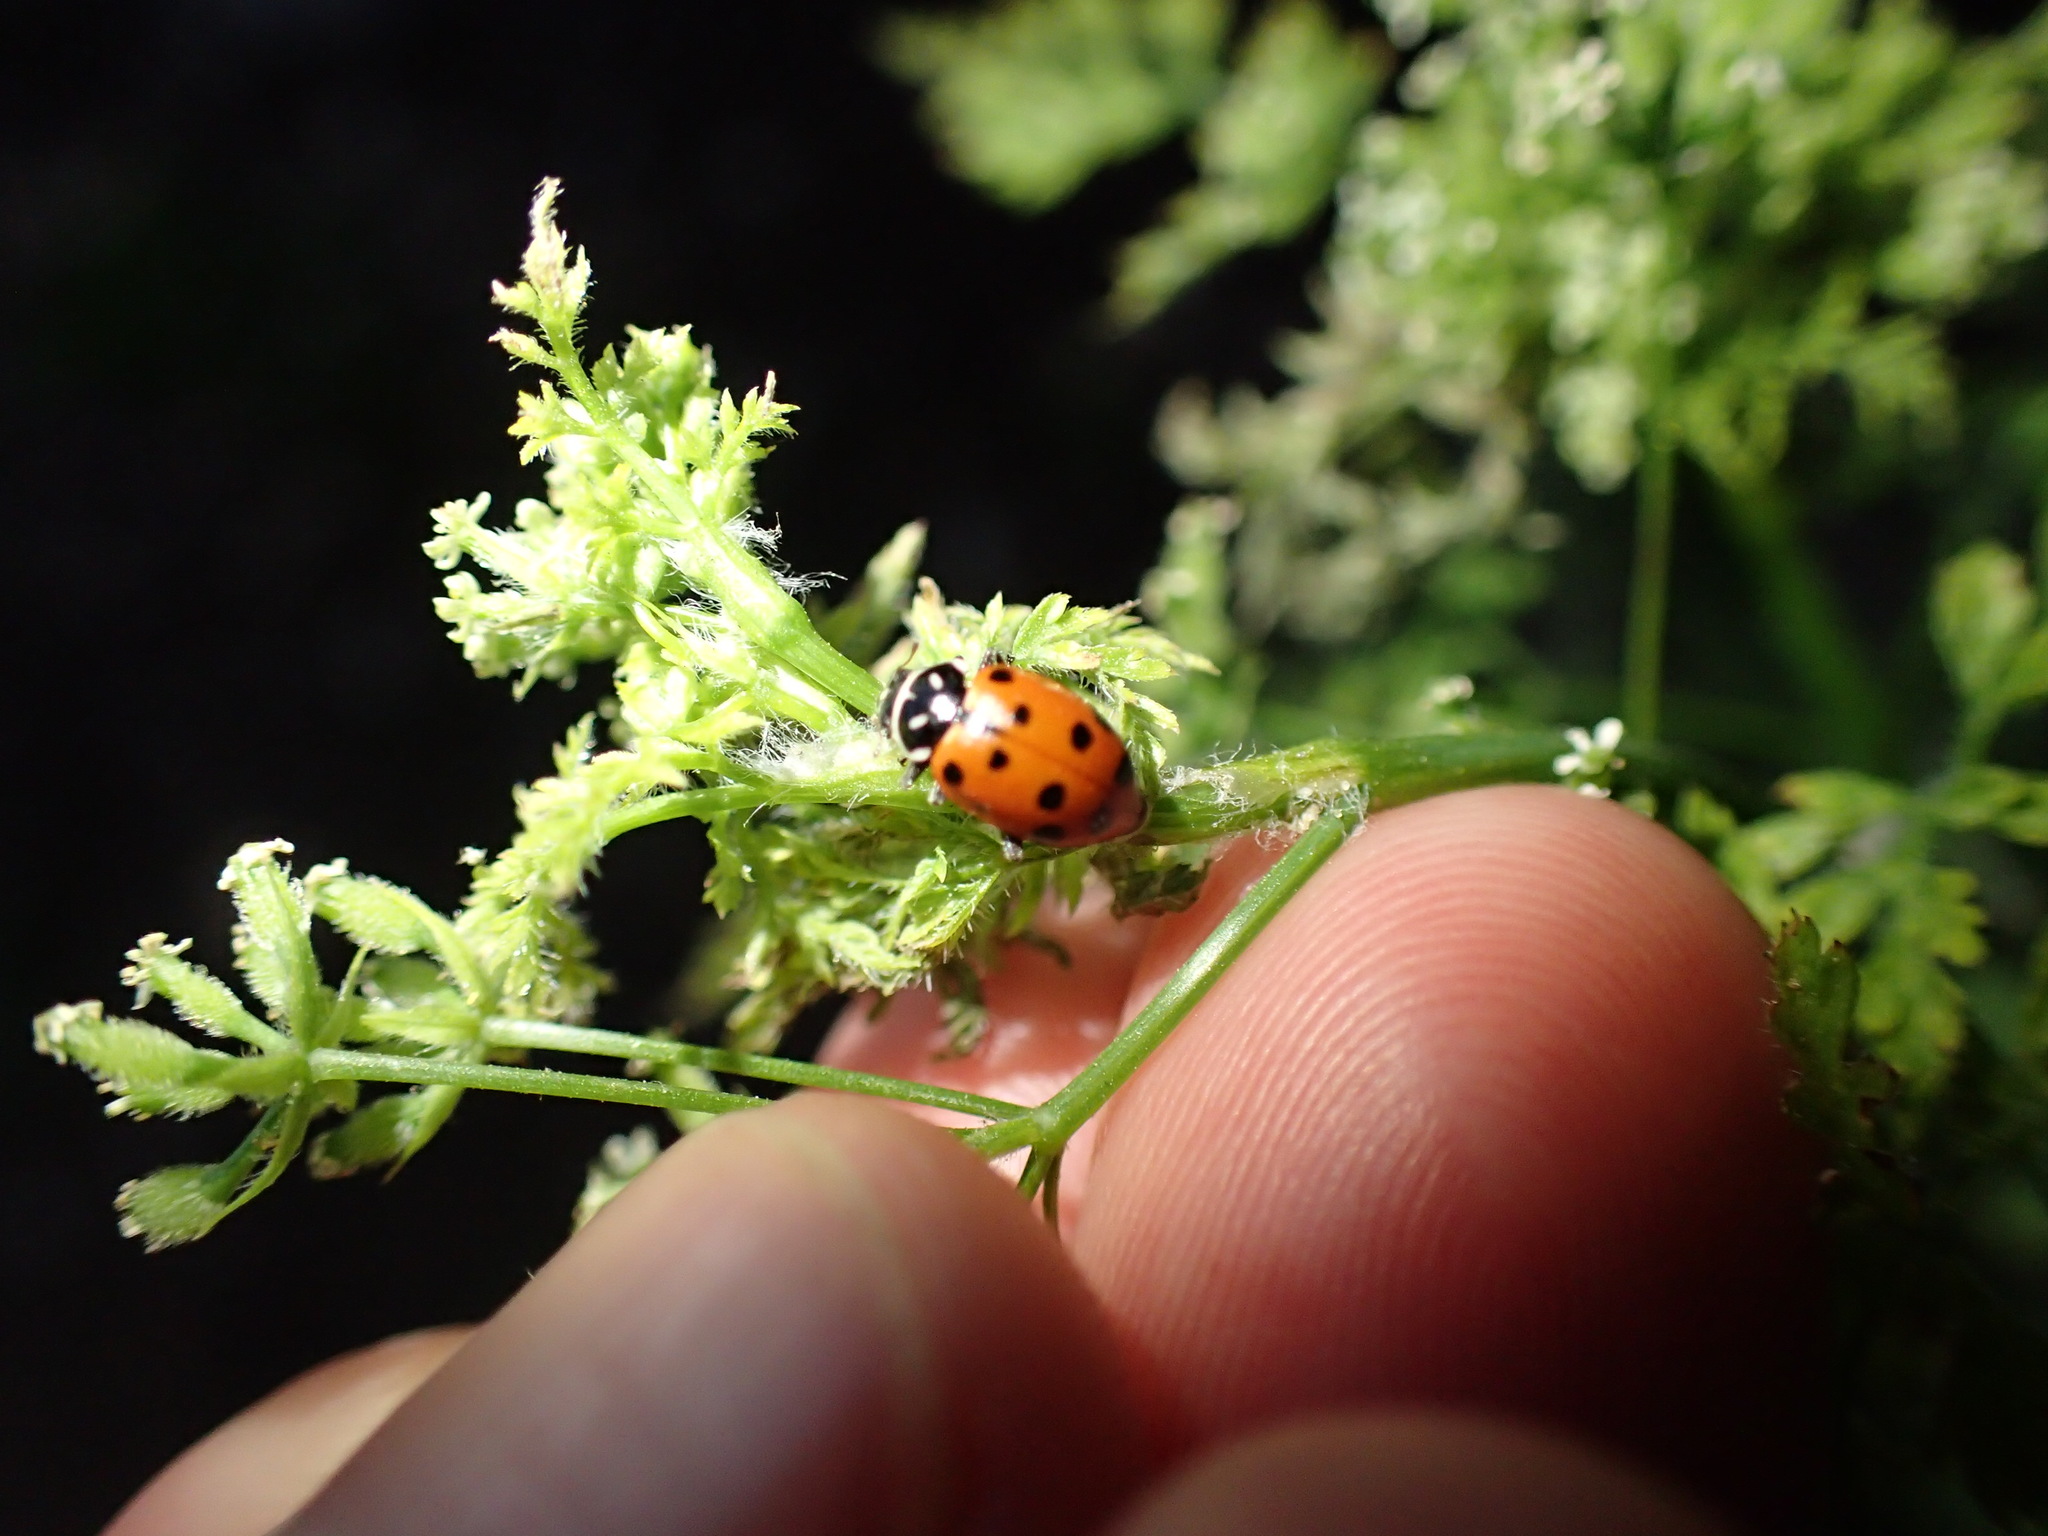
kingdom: Animalia
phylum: Arthropoda
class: Insecta
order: Coleoptera
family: Coccinellidae
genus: Hippodamia
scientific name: Hippodamia convergens
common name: Convergent lady beetle
